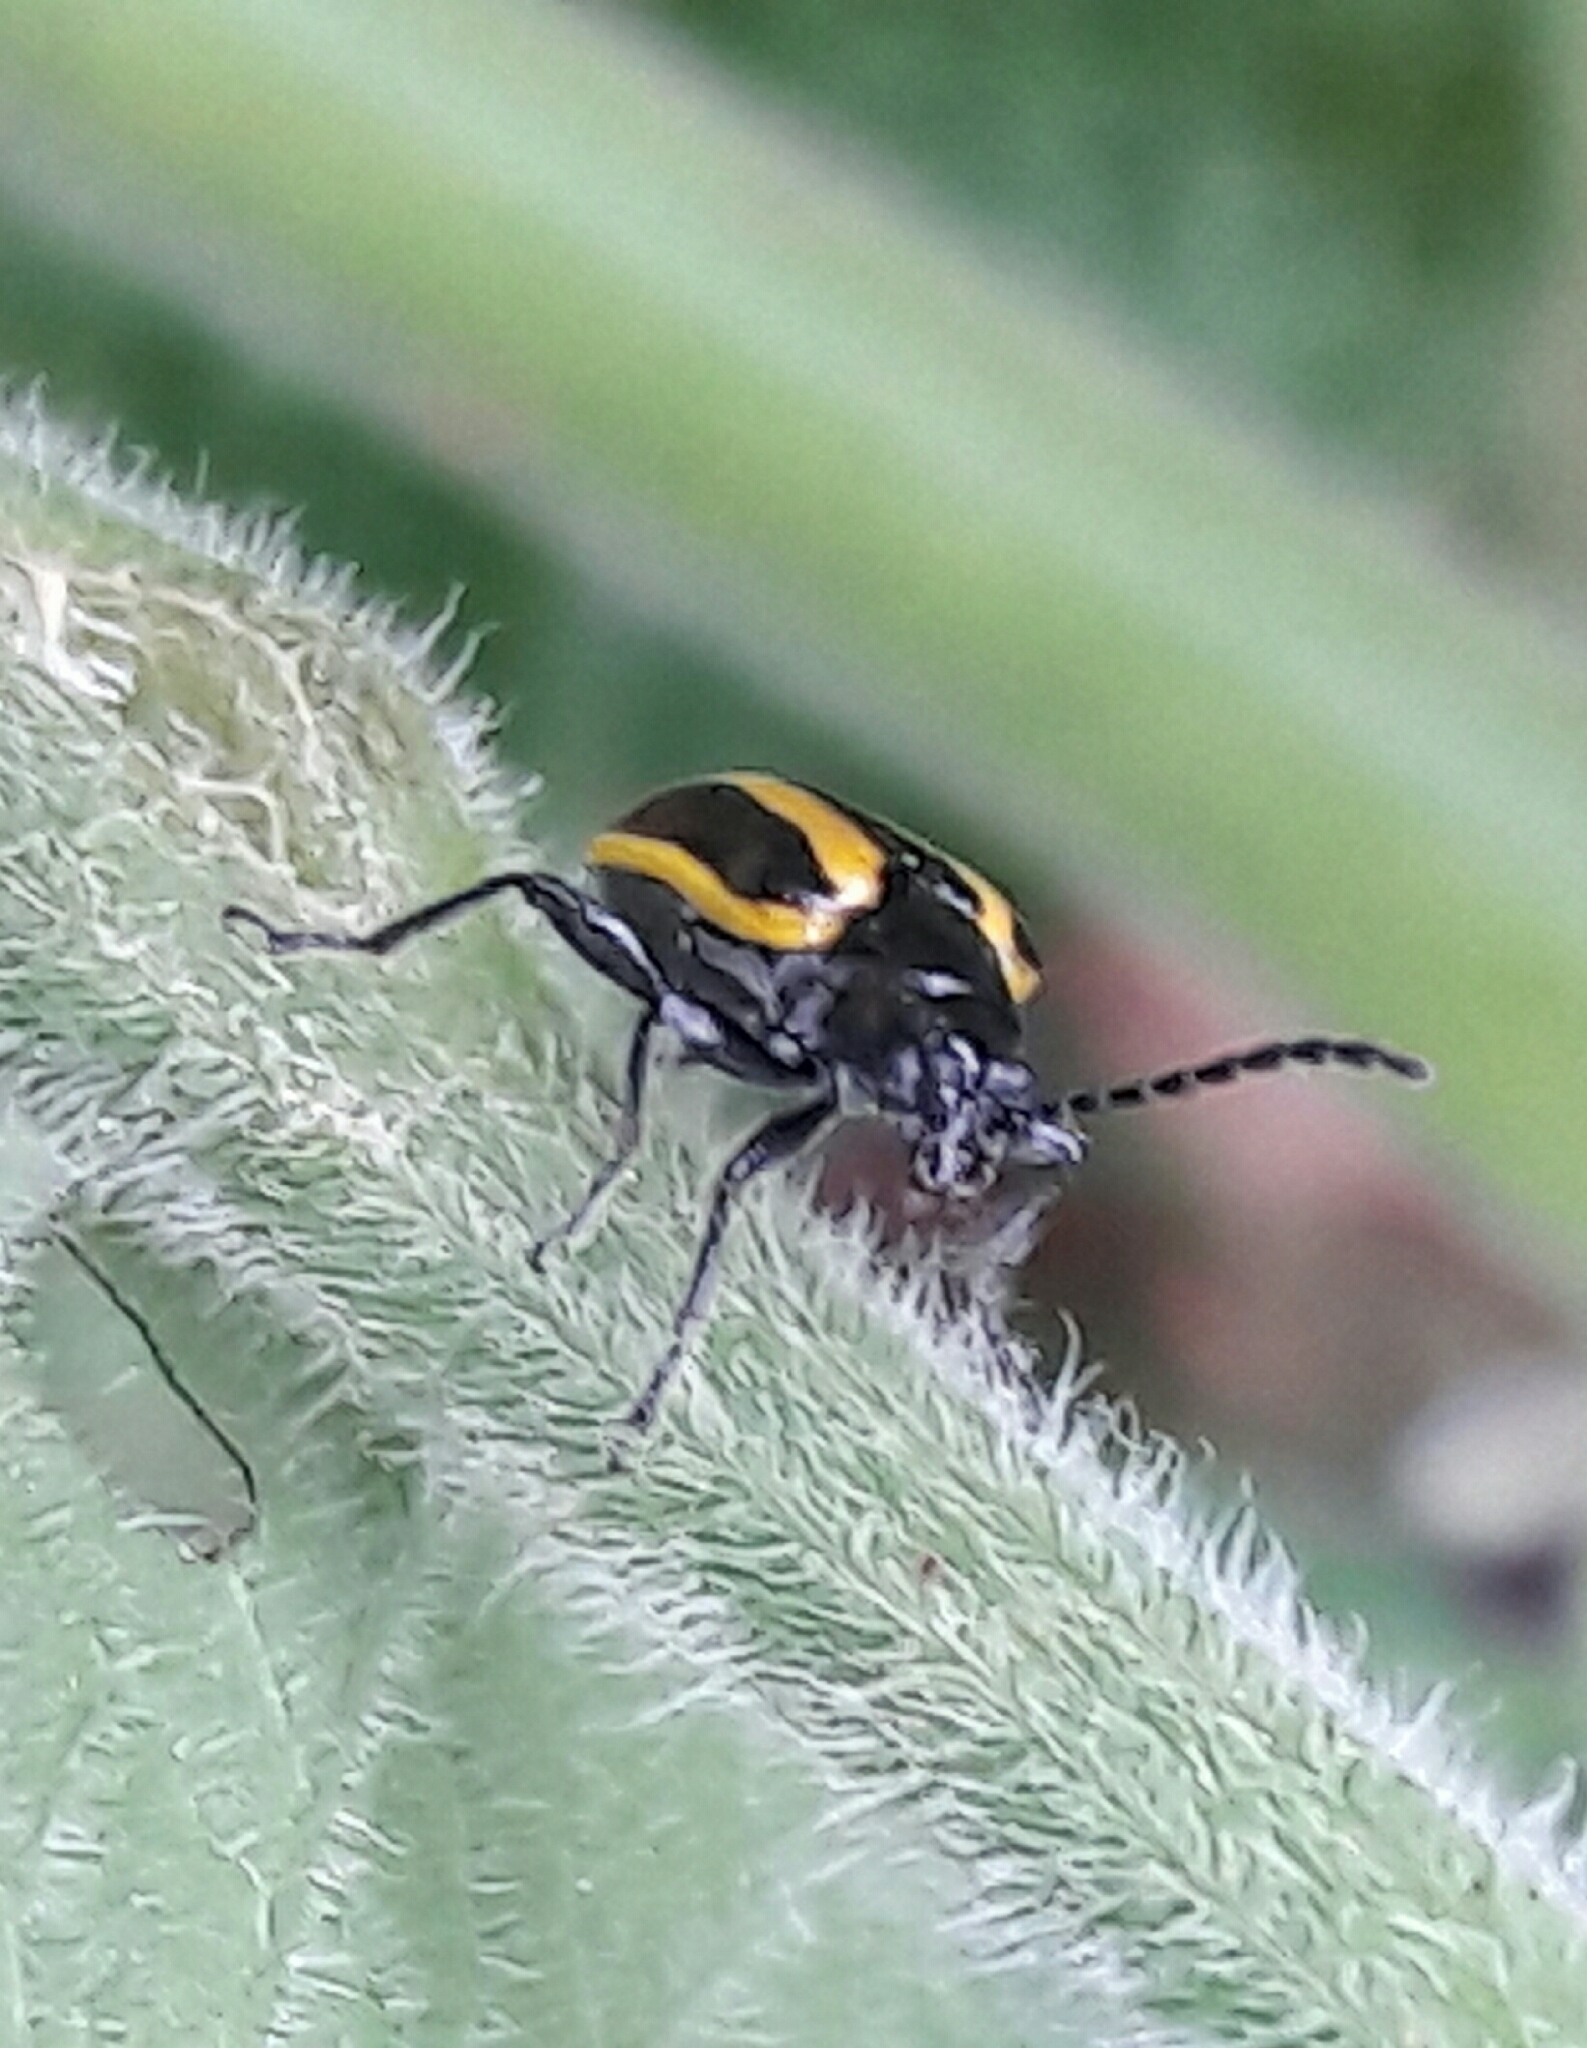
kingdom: Animalia
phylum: Arthropoda
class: Insecta
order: Coleoptera
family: Chrysomelidae
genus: Lema
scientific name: Lema confusa
